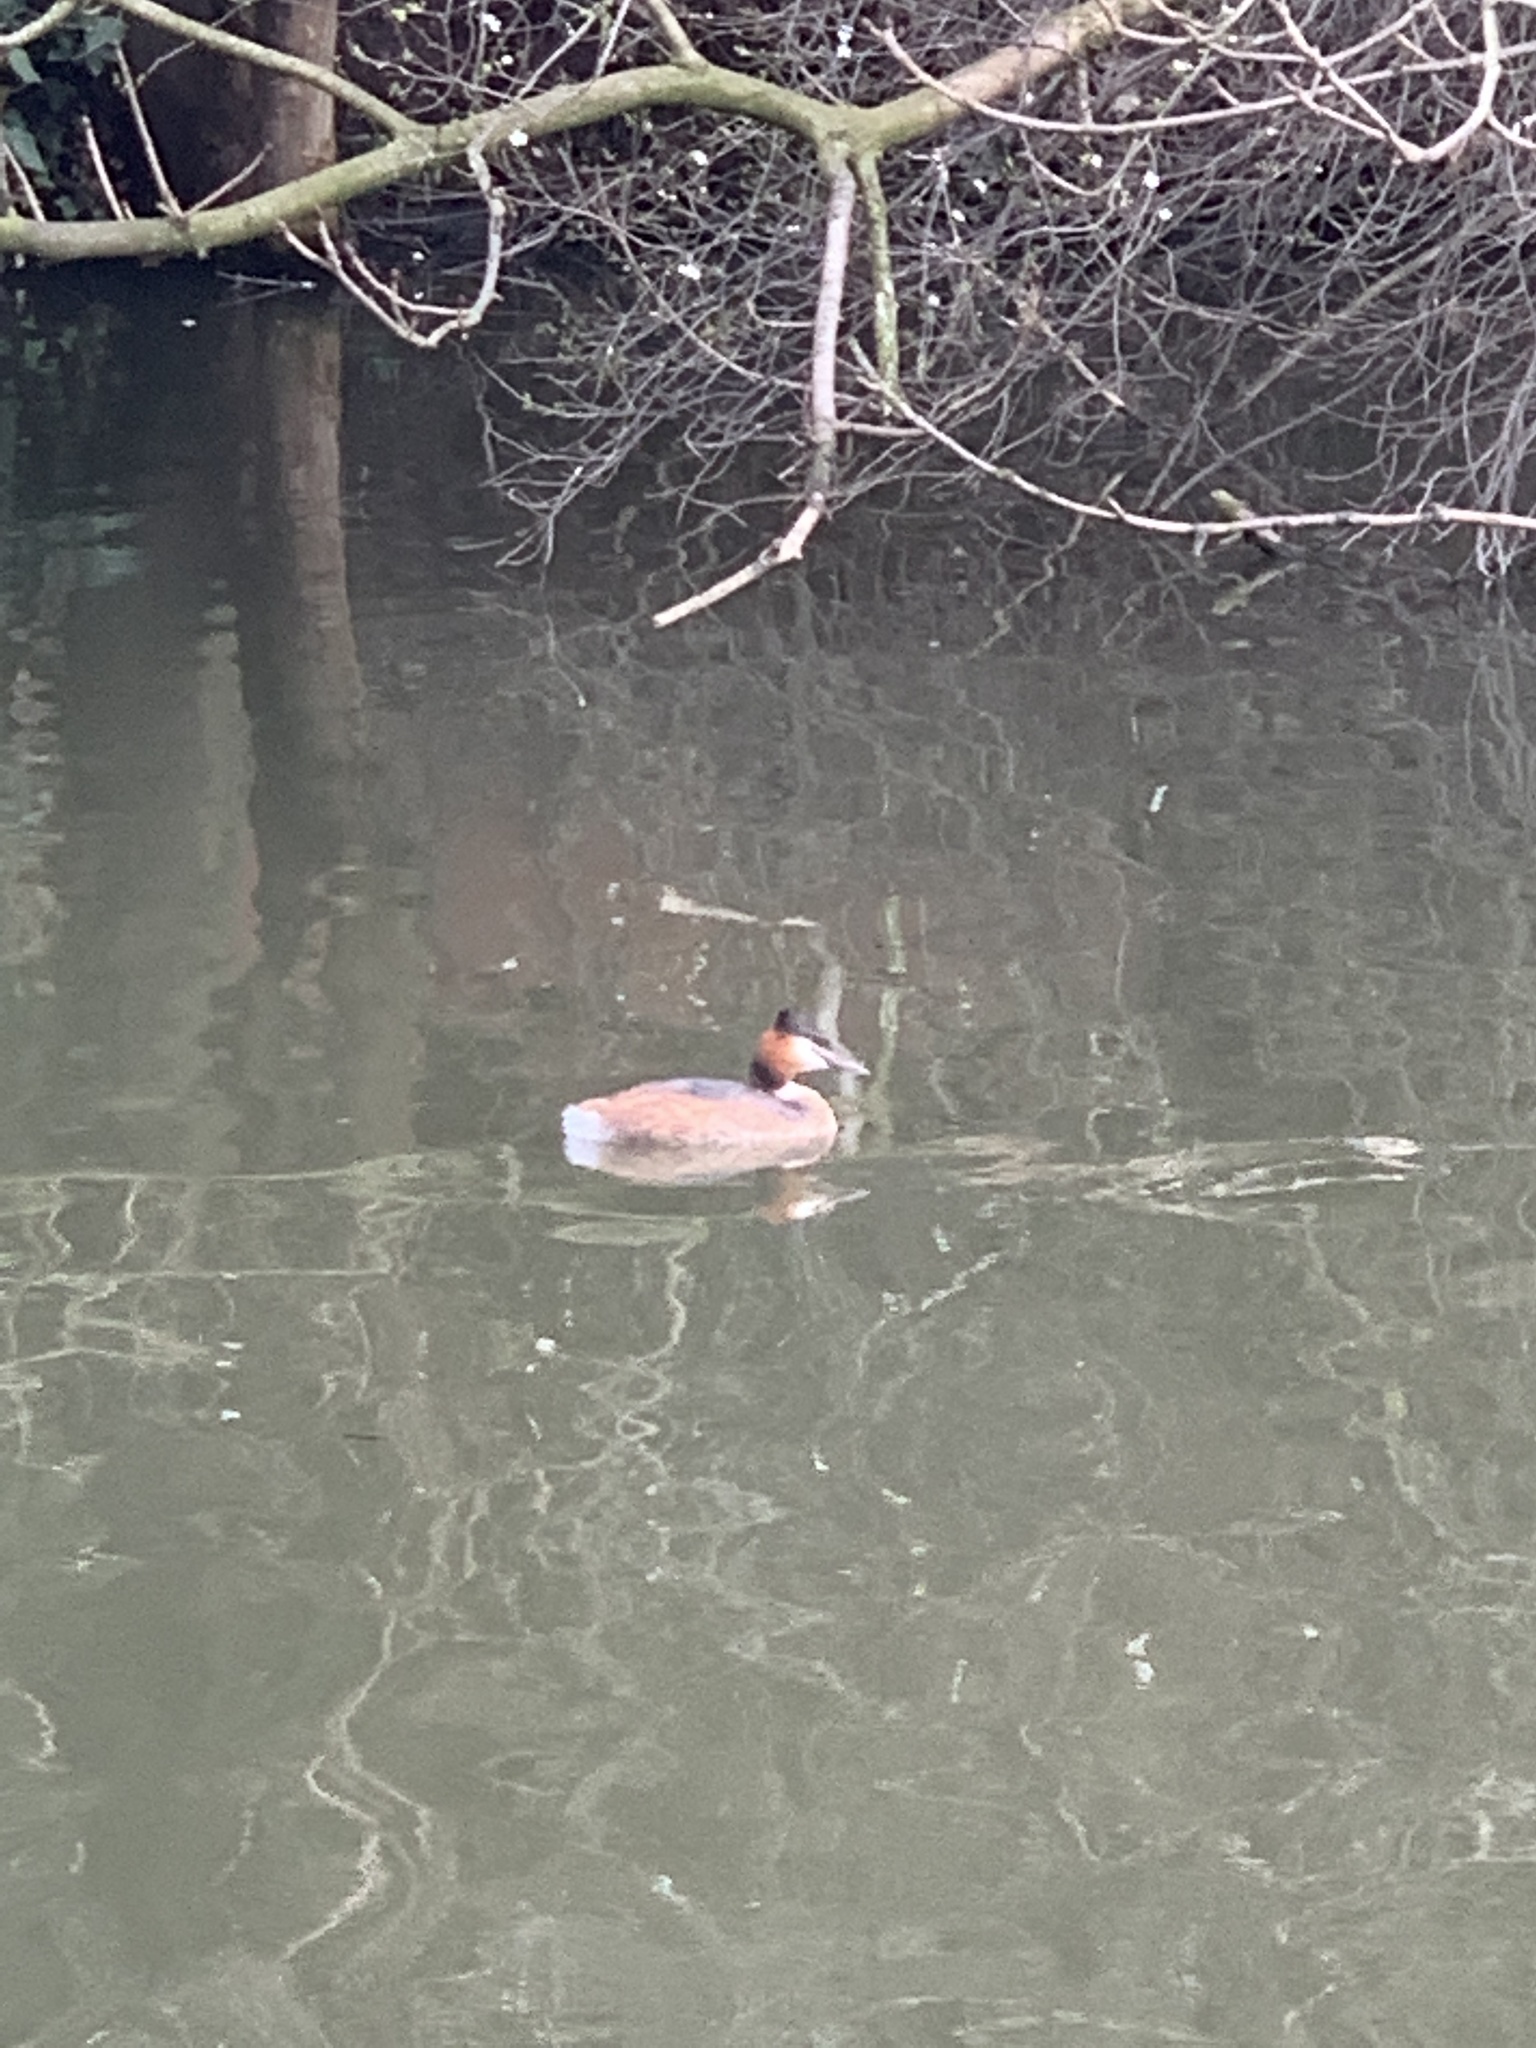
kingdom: Animalia
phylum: Chordata
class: Aves
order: Podicipediformes
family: Podicipedidae
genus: Podiceps
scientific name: Podiceps cristatus
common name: Great crested grebe
